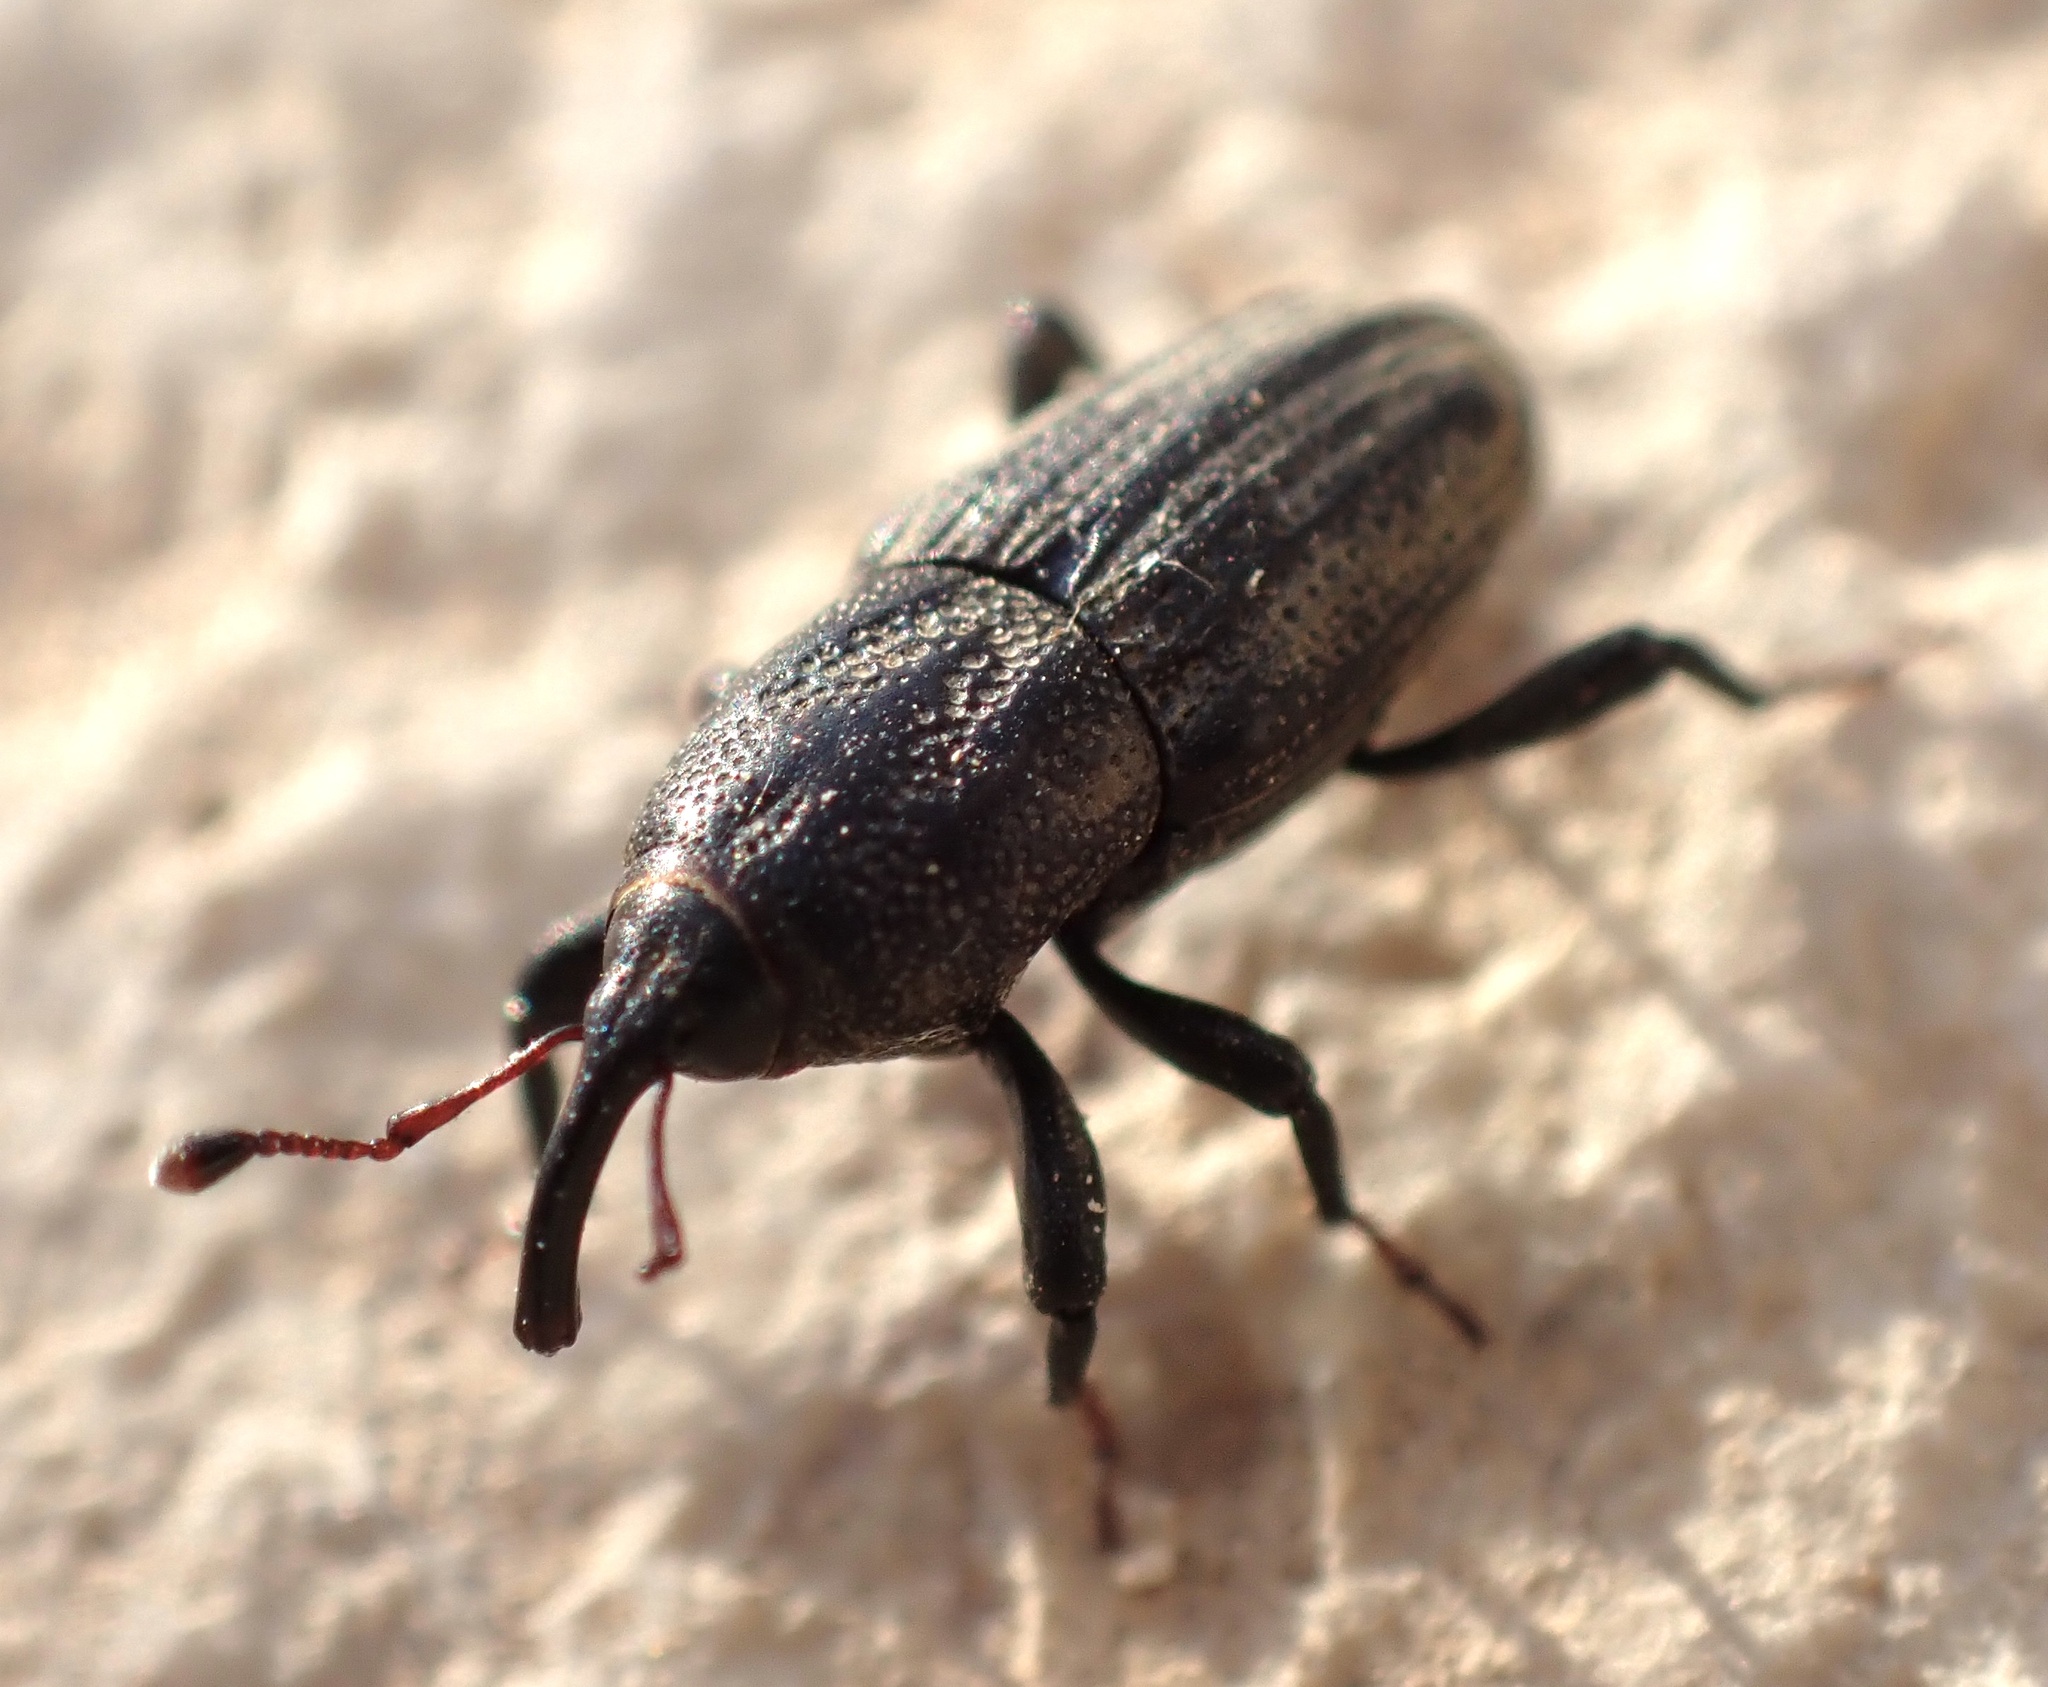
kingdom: Animalia
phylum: Arthropoda
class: Insecta
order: Coleoptera
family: Dryophthoridae
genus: Sphenophorus
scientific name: Sphenophorus venatus
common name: Hunting billbug
